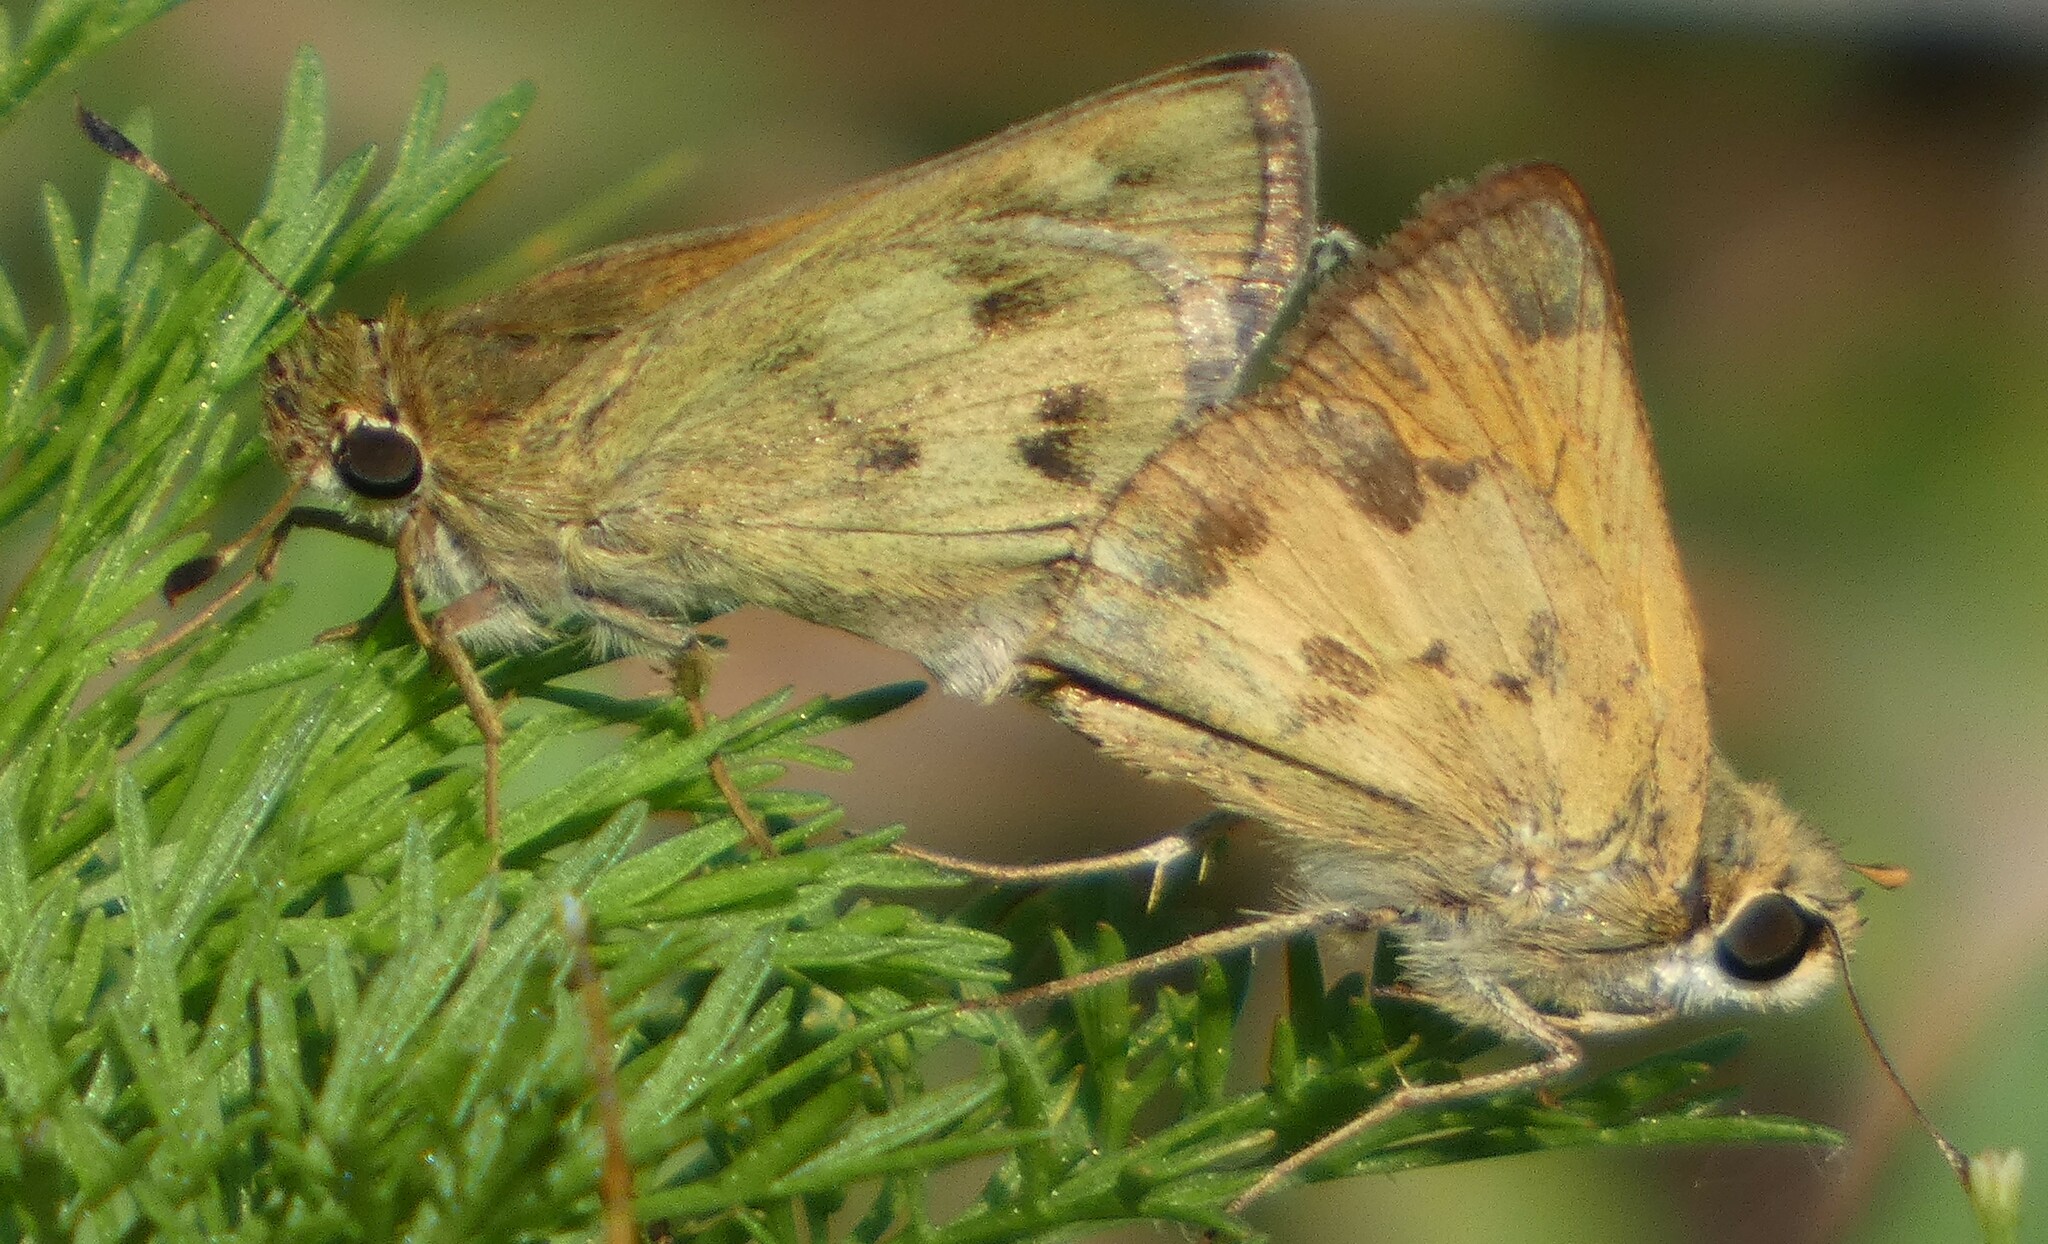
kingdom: Animalia
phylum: Arthropoda
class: Insecta
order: Lepidoptera
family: Hesperiidae
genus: Polites
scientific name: Polites vibex
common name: Whirlabout
